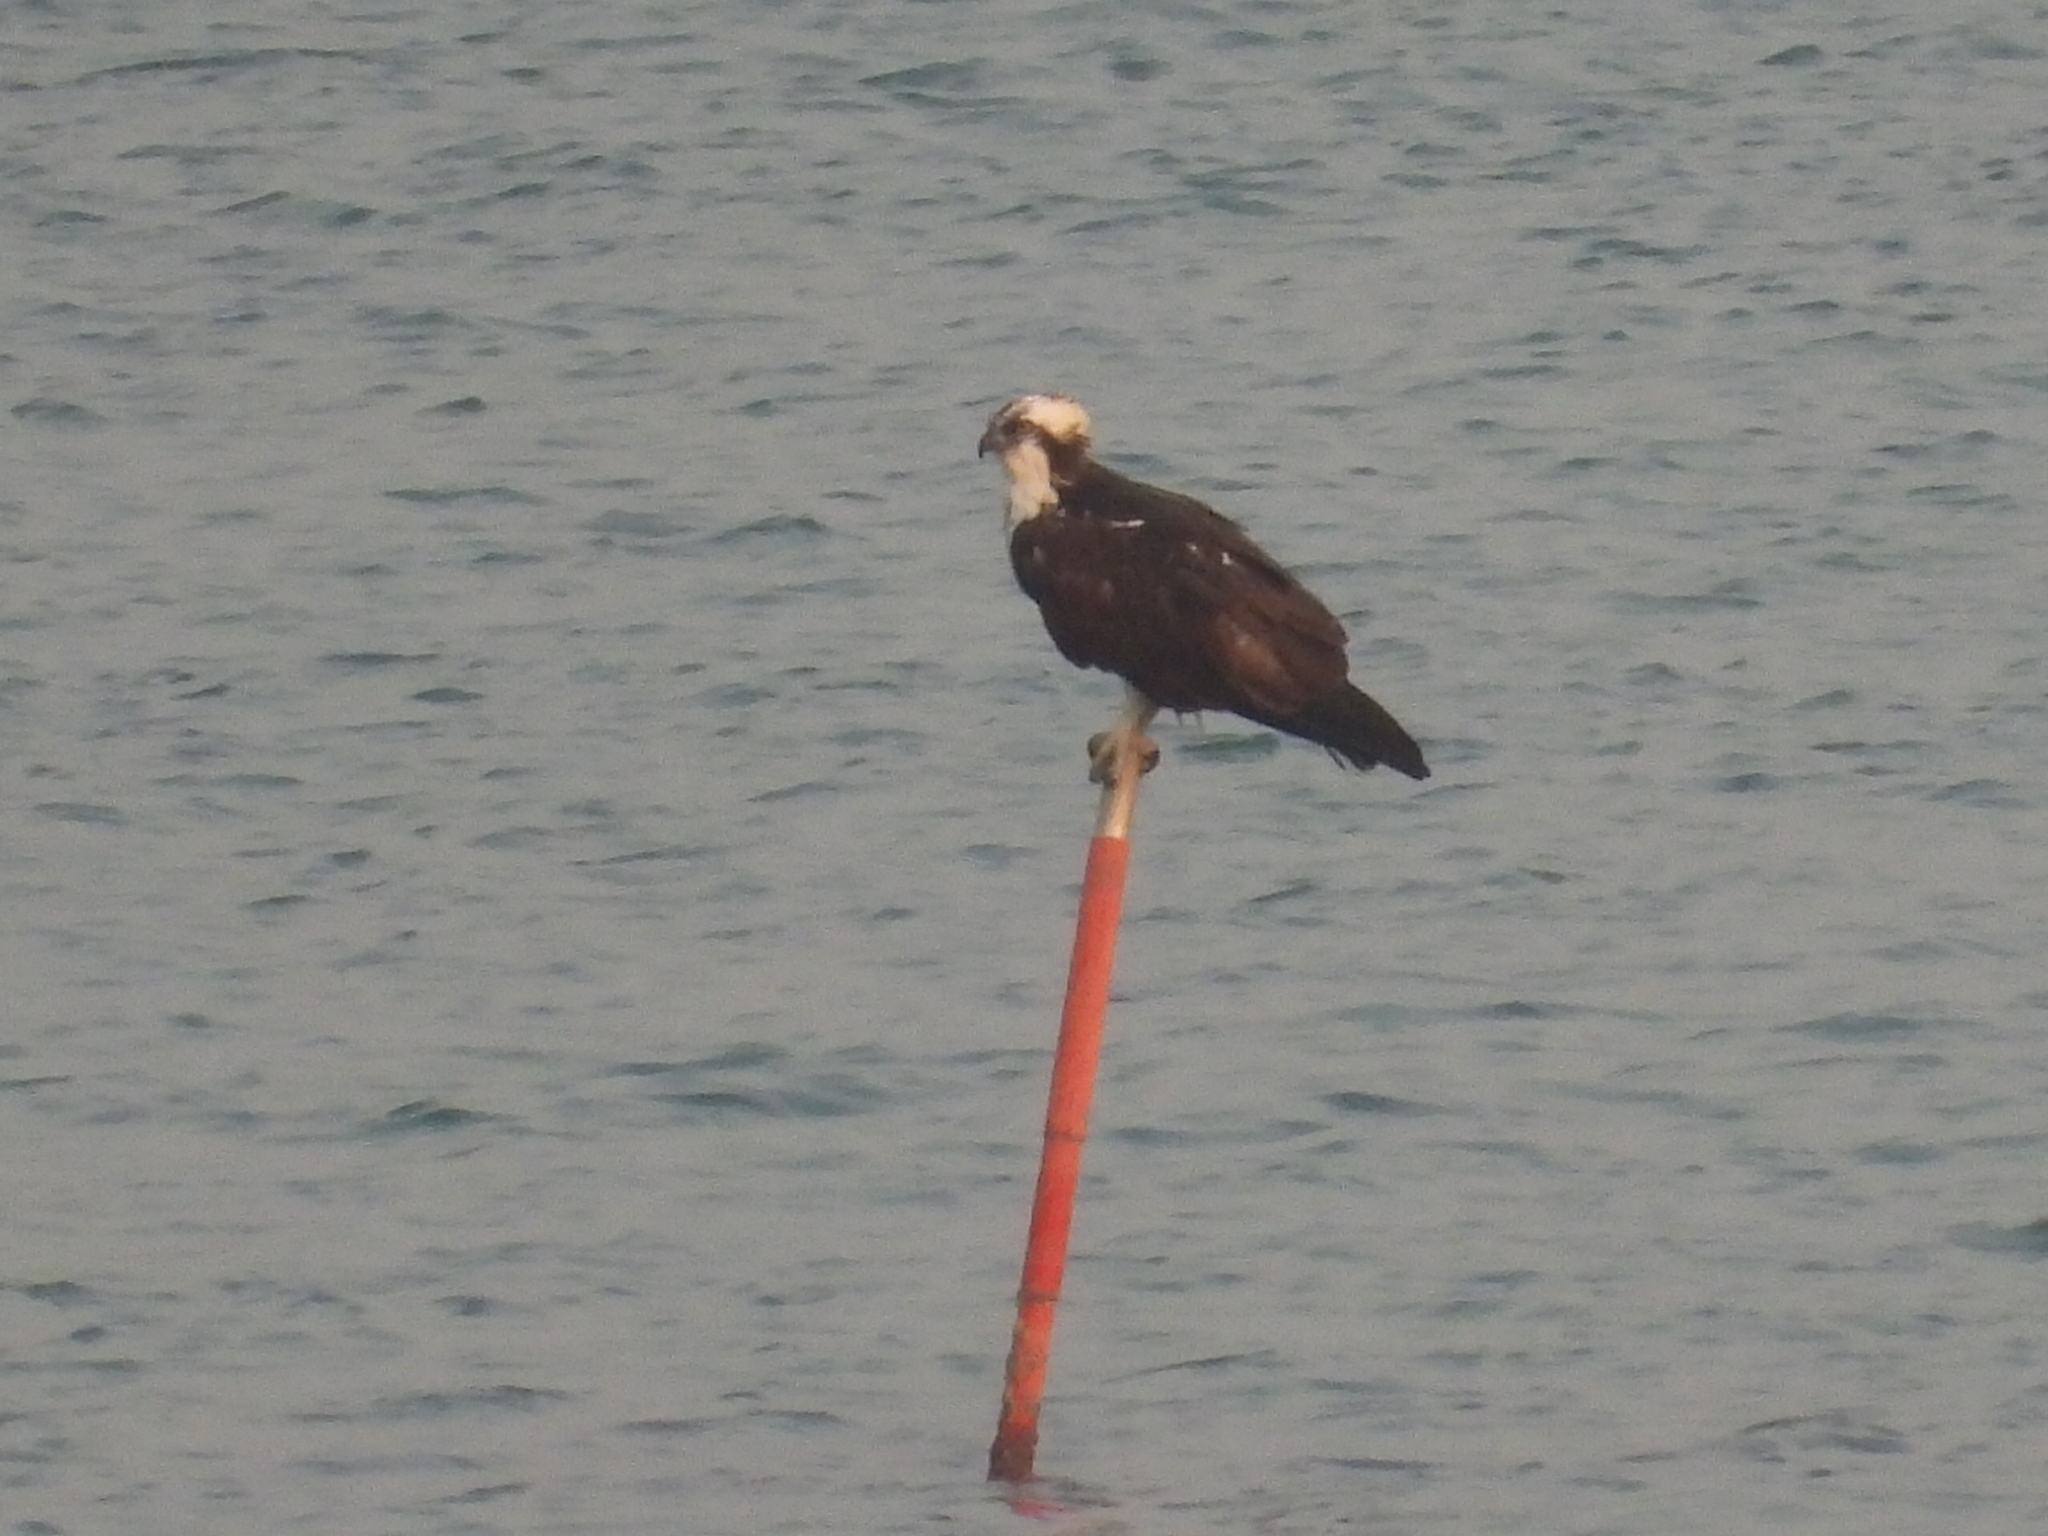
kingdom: Animalia
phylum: Chordata
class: Aves
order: Accipitriformes
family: Pandionidae
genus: Pandion
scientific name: Pandion haliaetus
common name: Osprey
